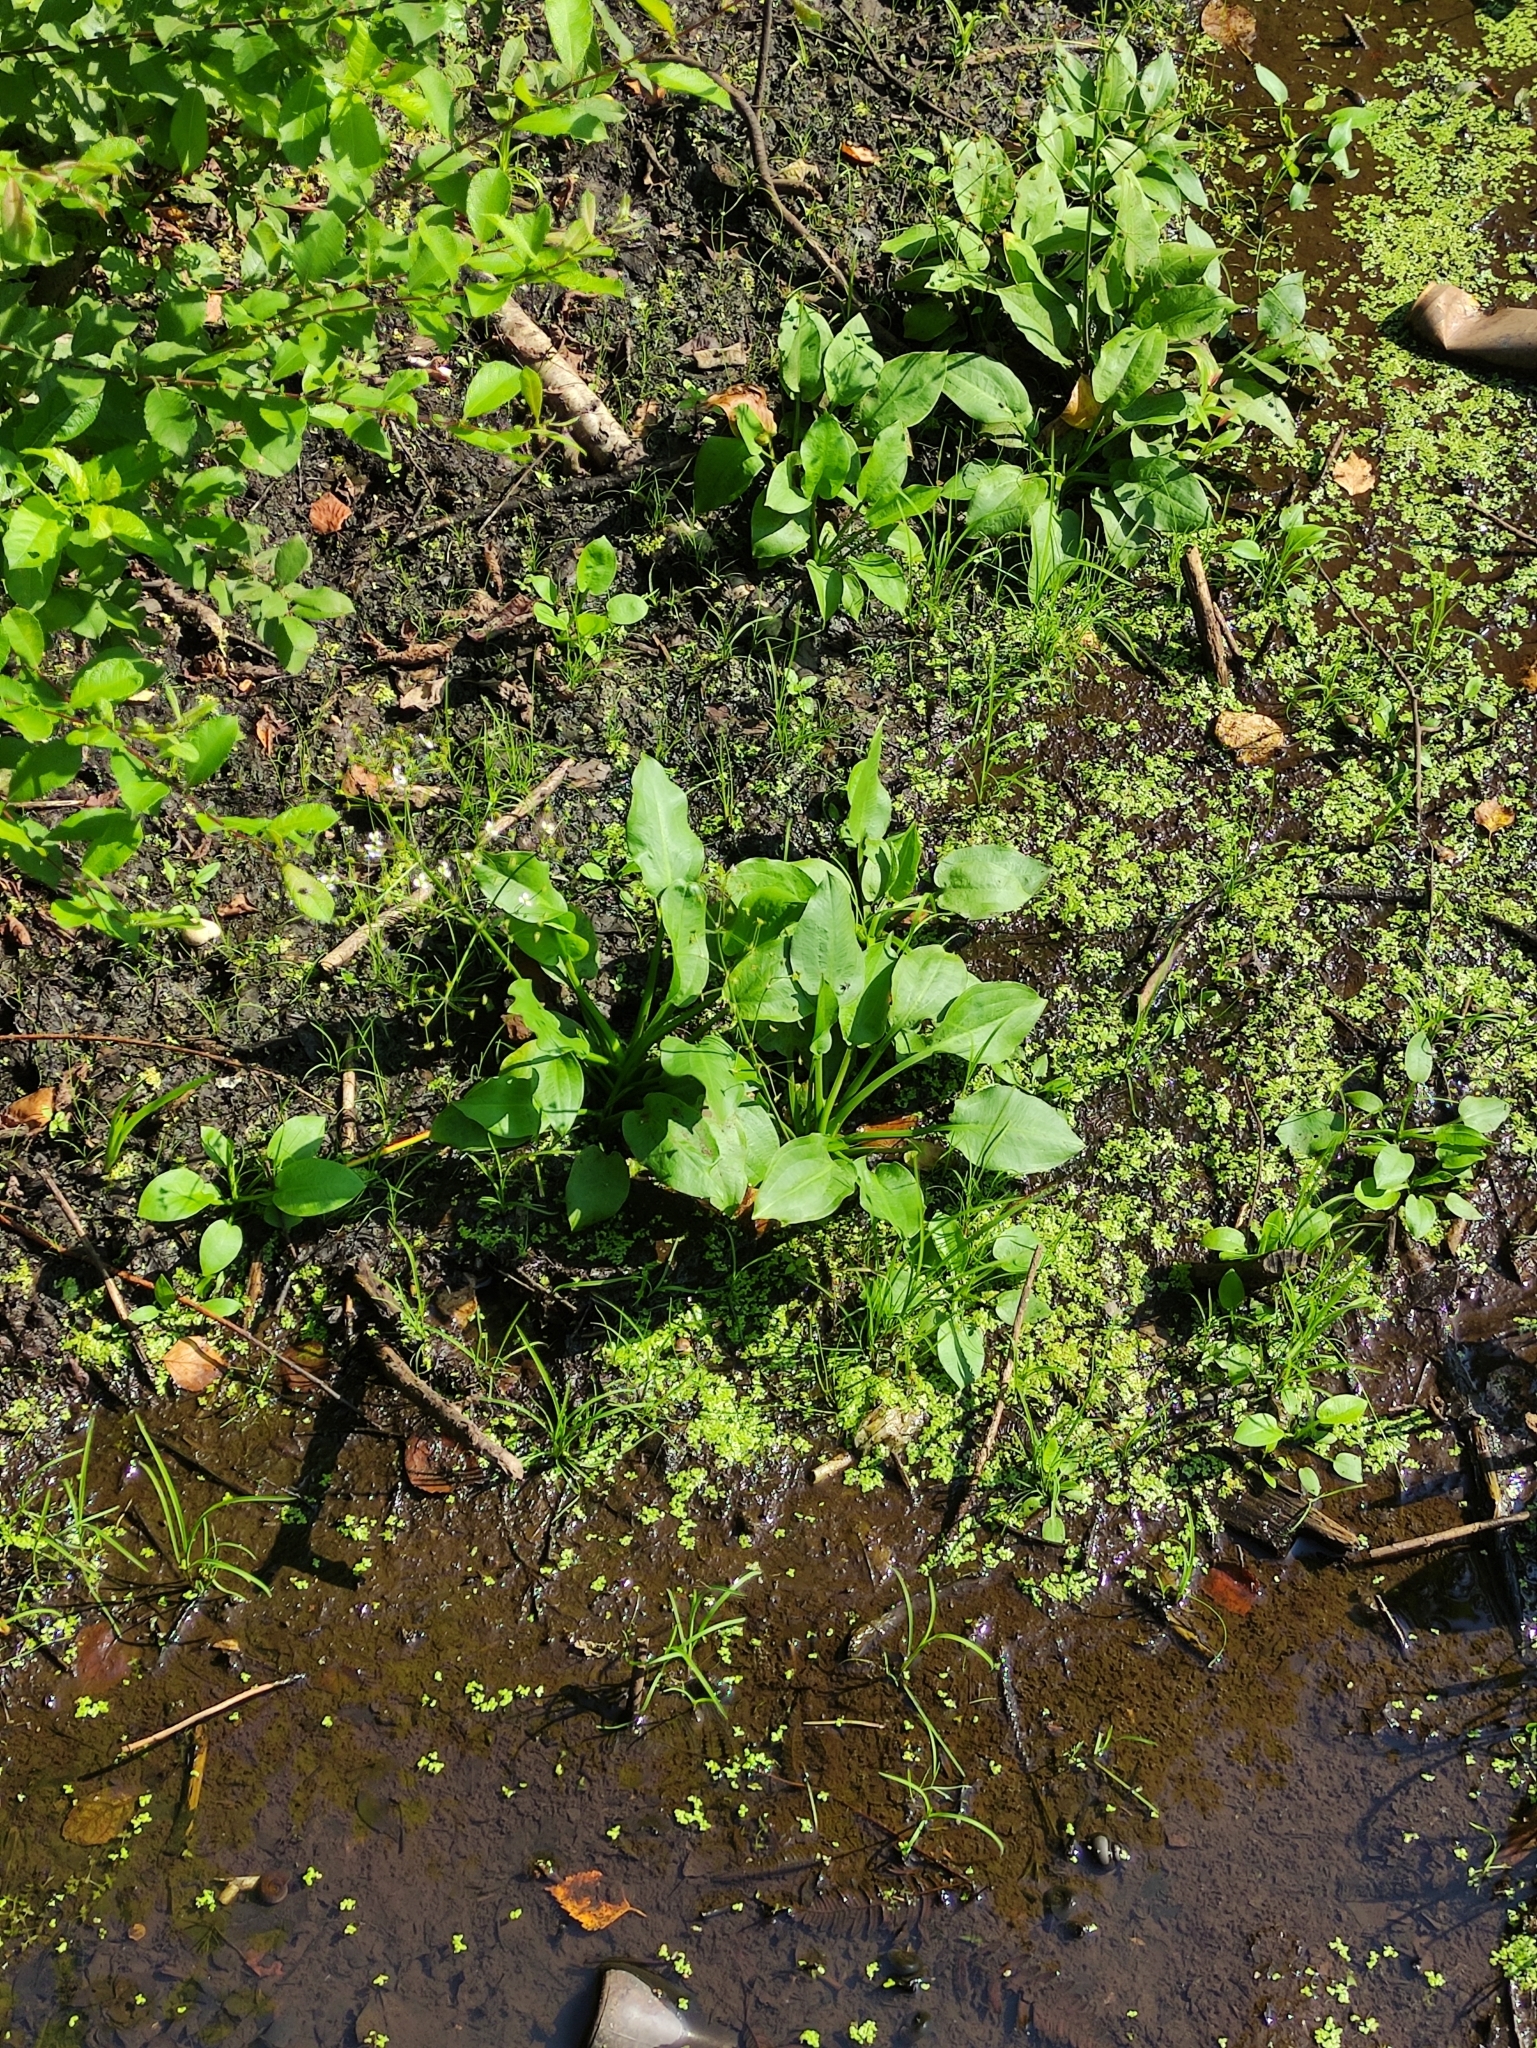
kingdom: Plantae
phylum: Tracheophyta
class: Liliopsida
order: Alismatales
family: Alismataceae
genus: Alisma
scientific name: Alisma plantago-aquatica
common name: Water-plantain
